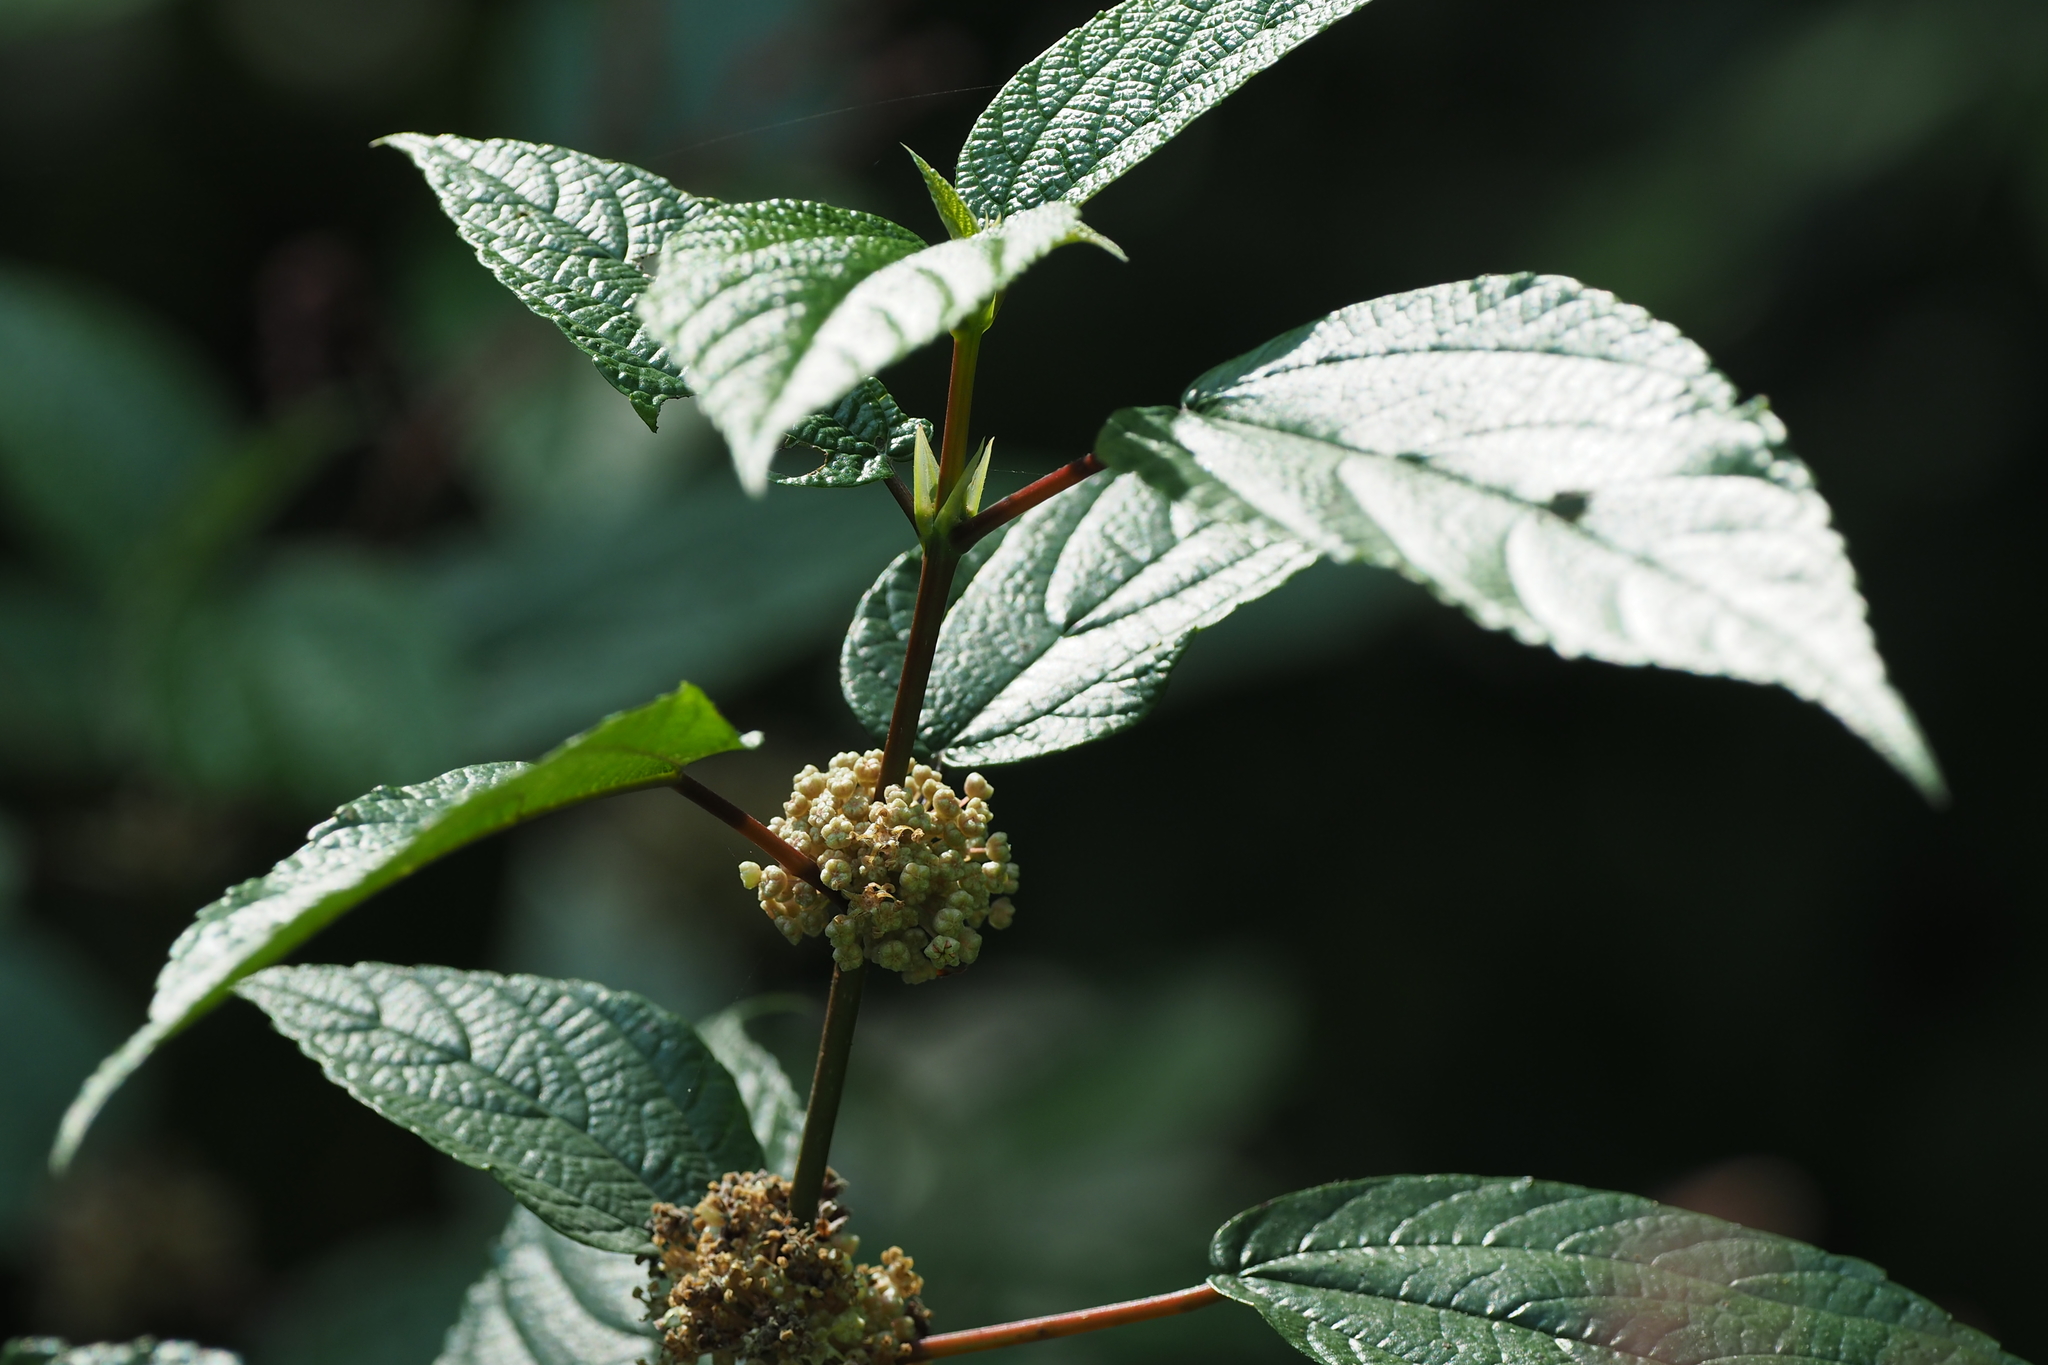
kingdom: Plantae
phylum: Tracheophyta
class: Magnoliopsida
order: Rosales
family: Urticaceae
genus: Boehmeria
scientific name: Boehmeria zollingeriana
